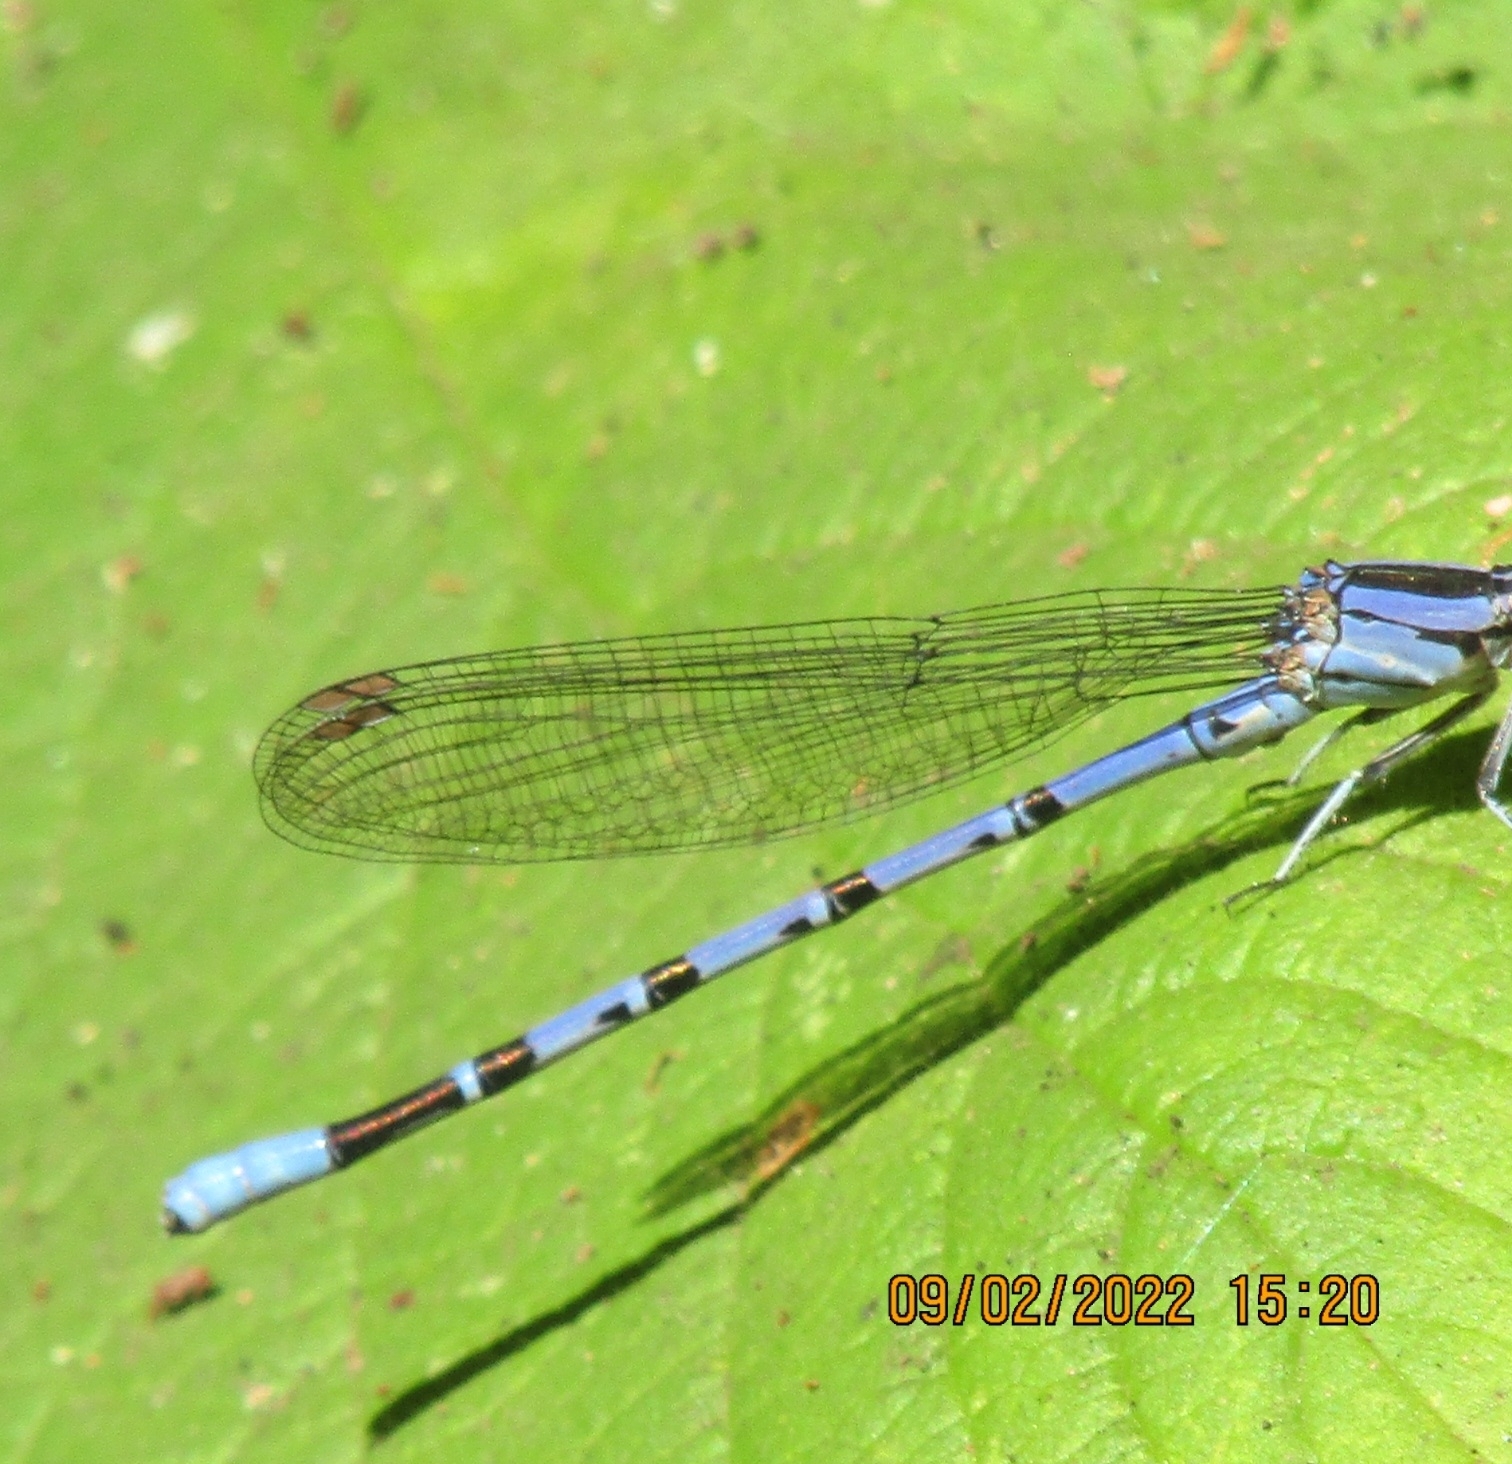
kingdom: Animalia
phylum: Arthropoda
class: Insecta
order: Odonata
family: Coenagrionidae
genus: Argia
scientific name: Argia vivida
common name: Vivid dancer
